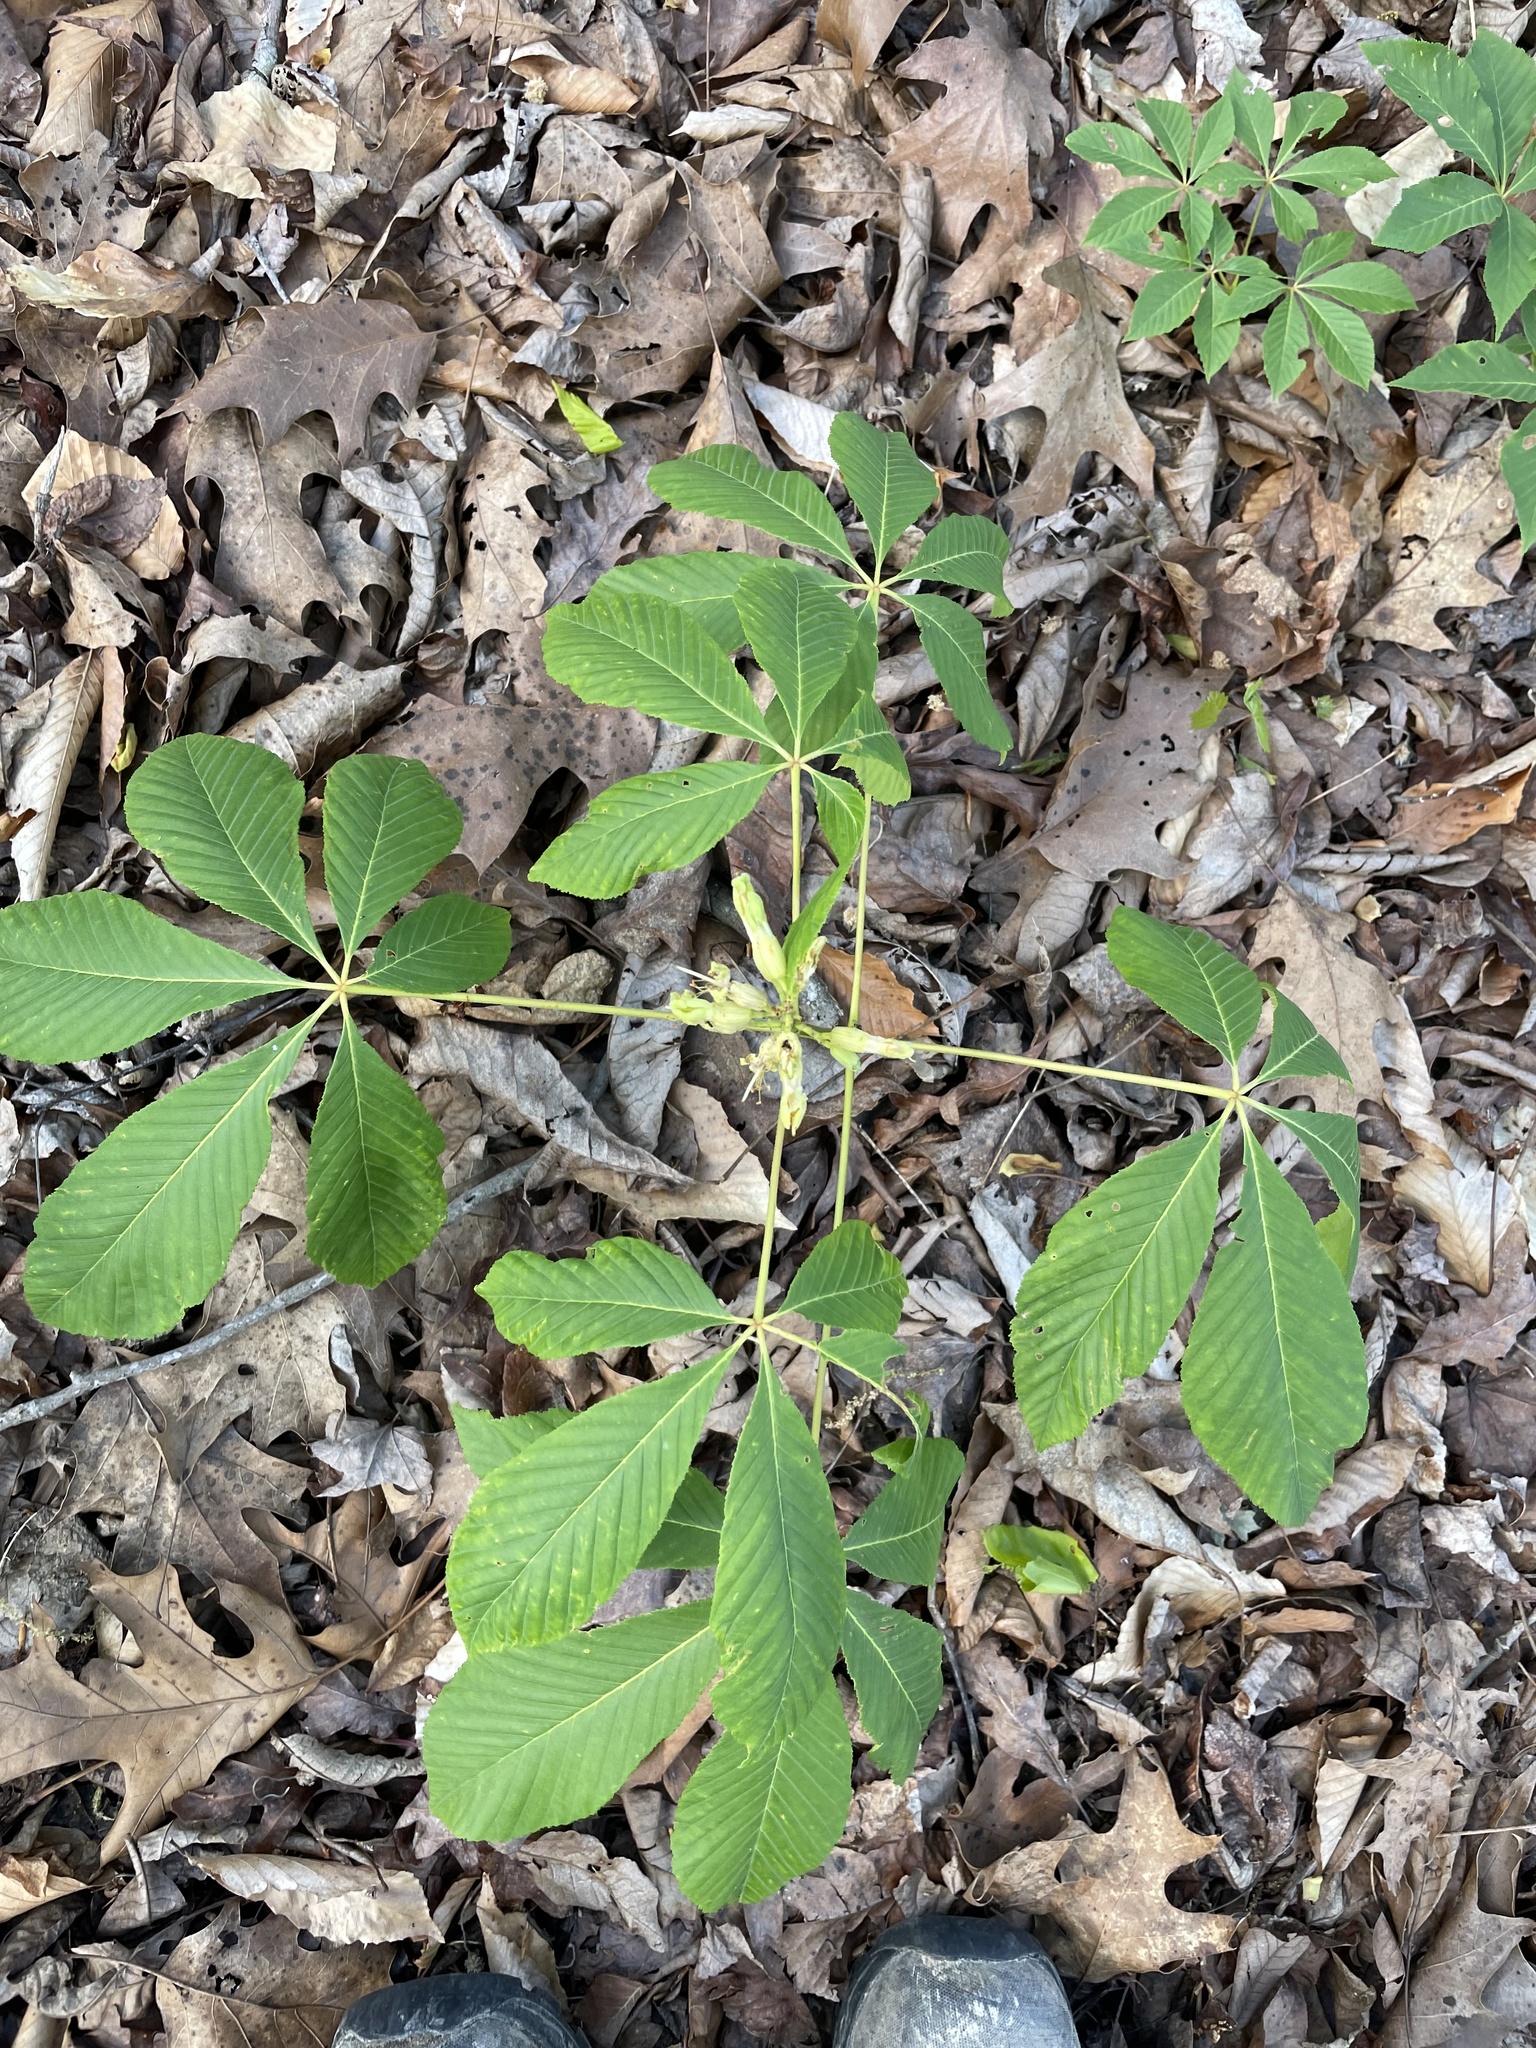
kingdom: Plantae
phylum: Tracheophyta
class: Magnoliopsida
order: Sapindales
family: Sapindaceae
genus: Aesculus
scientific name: Aesculus sylvatica
